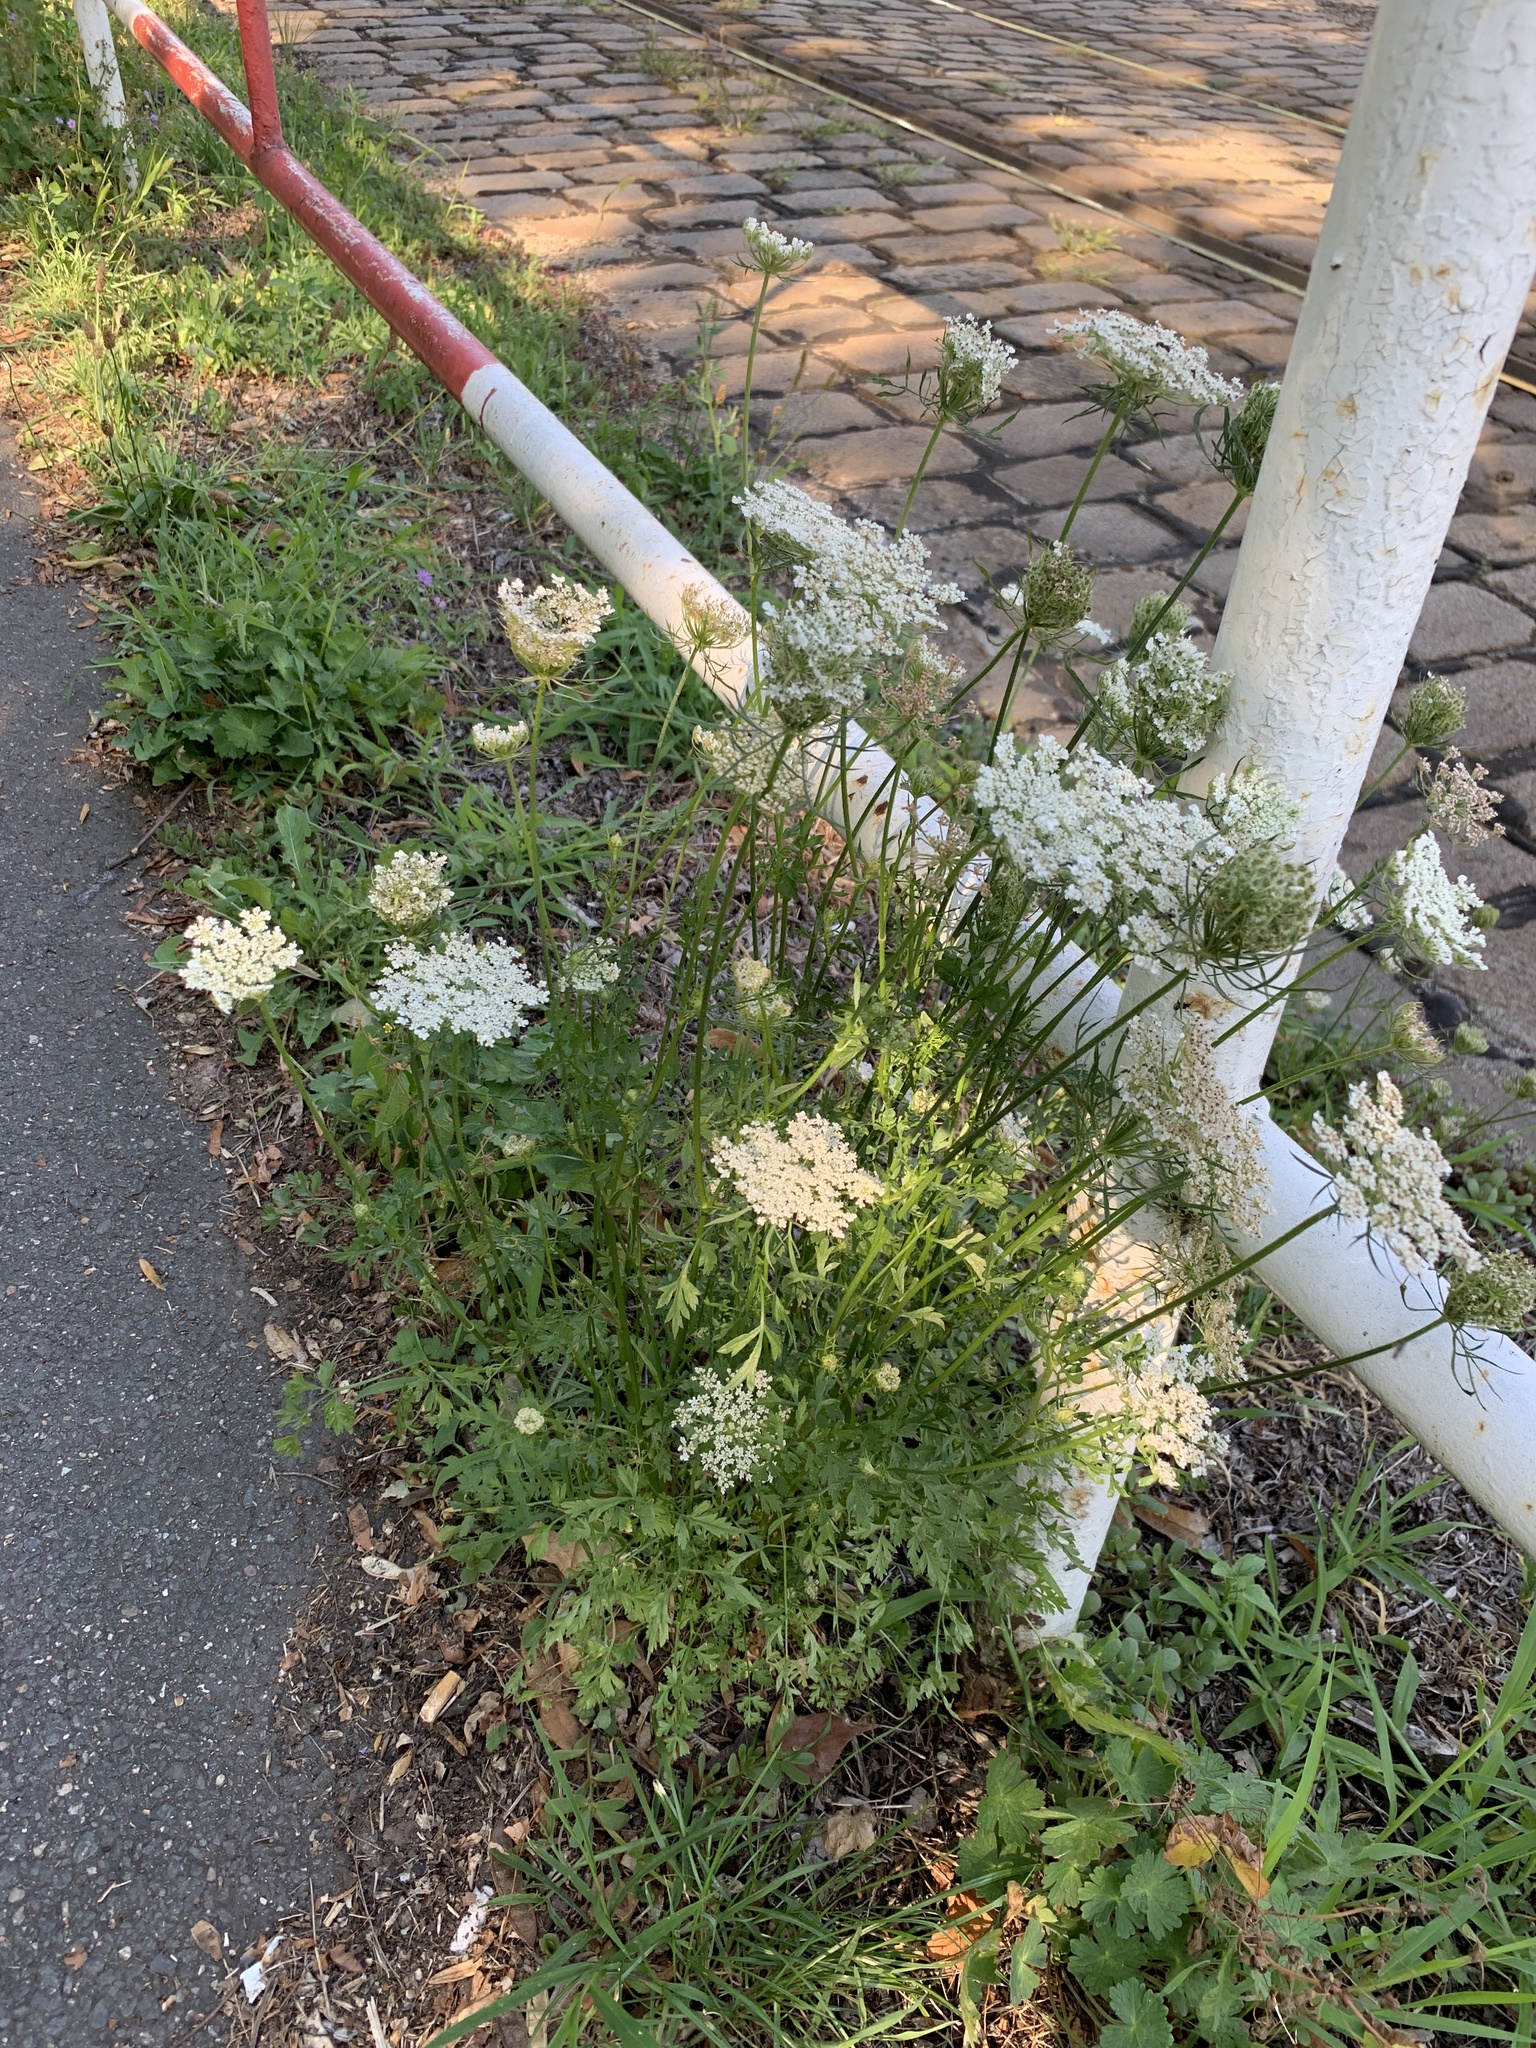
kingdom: Plantae
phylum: Tracheophyta
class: Magnoliopsida
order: Apiales
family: Apiaceae
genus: Daucus
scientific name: Daucus carota
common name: Wild carrot
